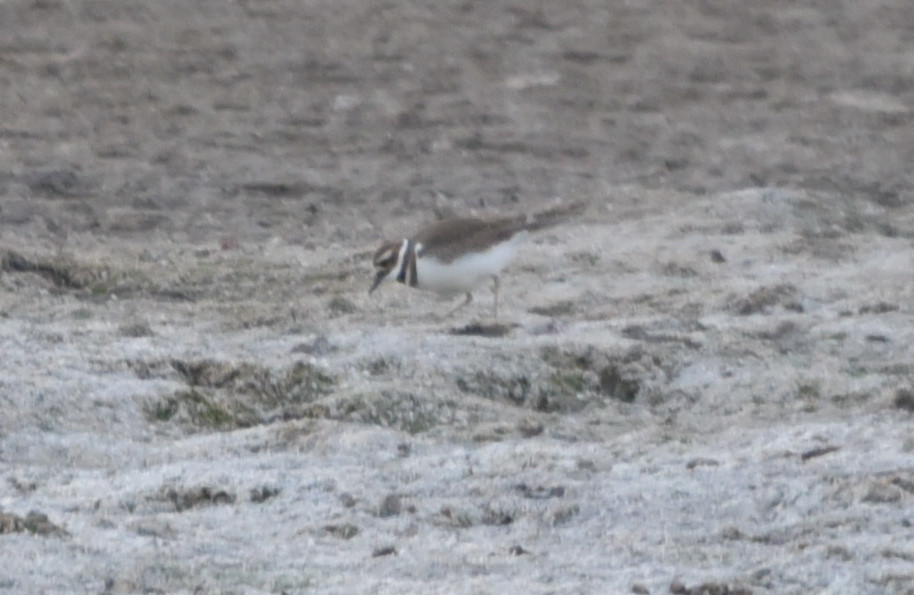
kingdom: Animalia
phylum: Chordata
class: Aves
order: Charadriiformes
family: Charadriidae
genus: Charadrius
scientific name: Charadrius vociferus
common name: Killdeer
